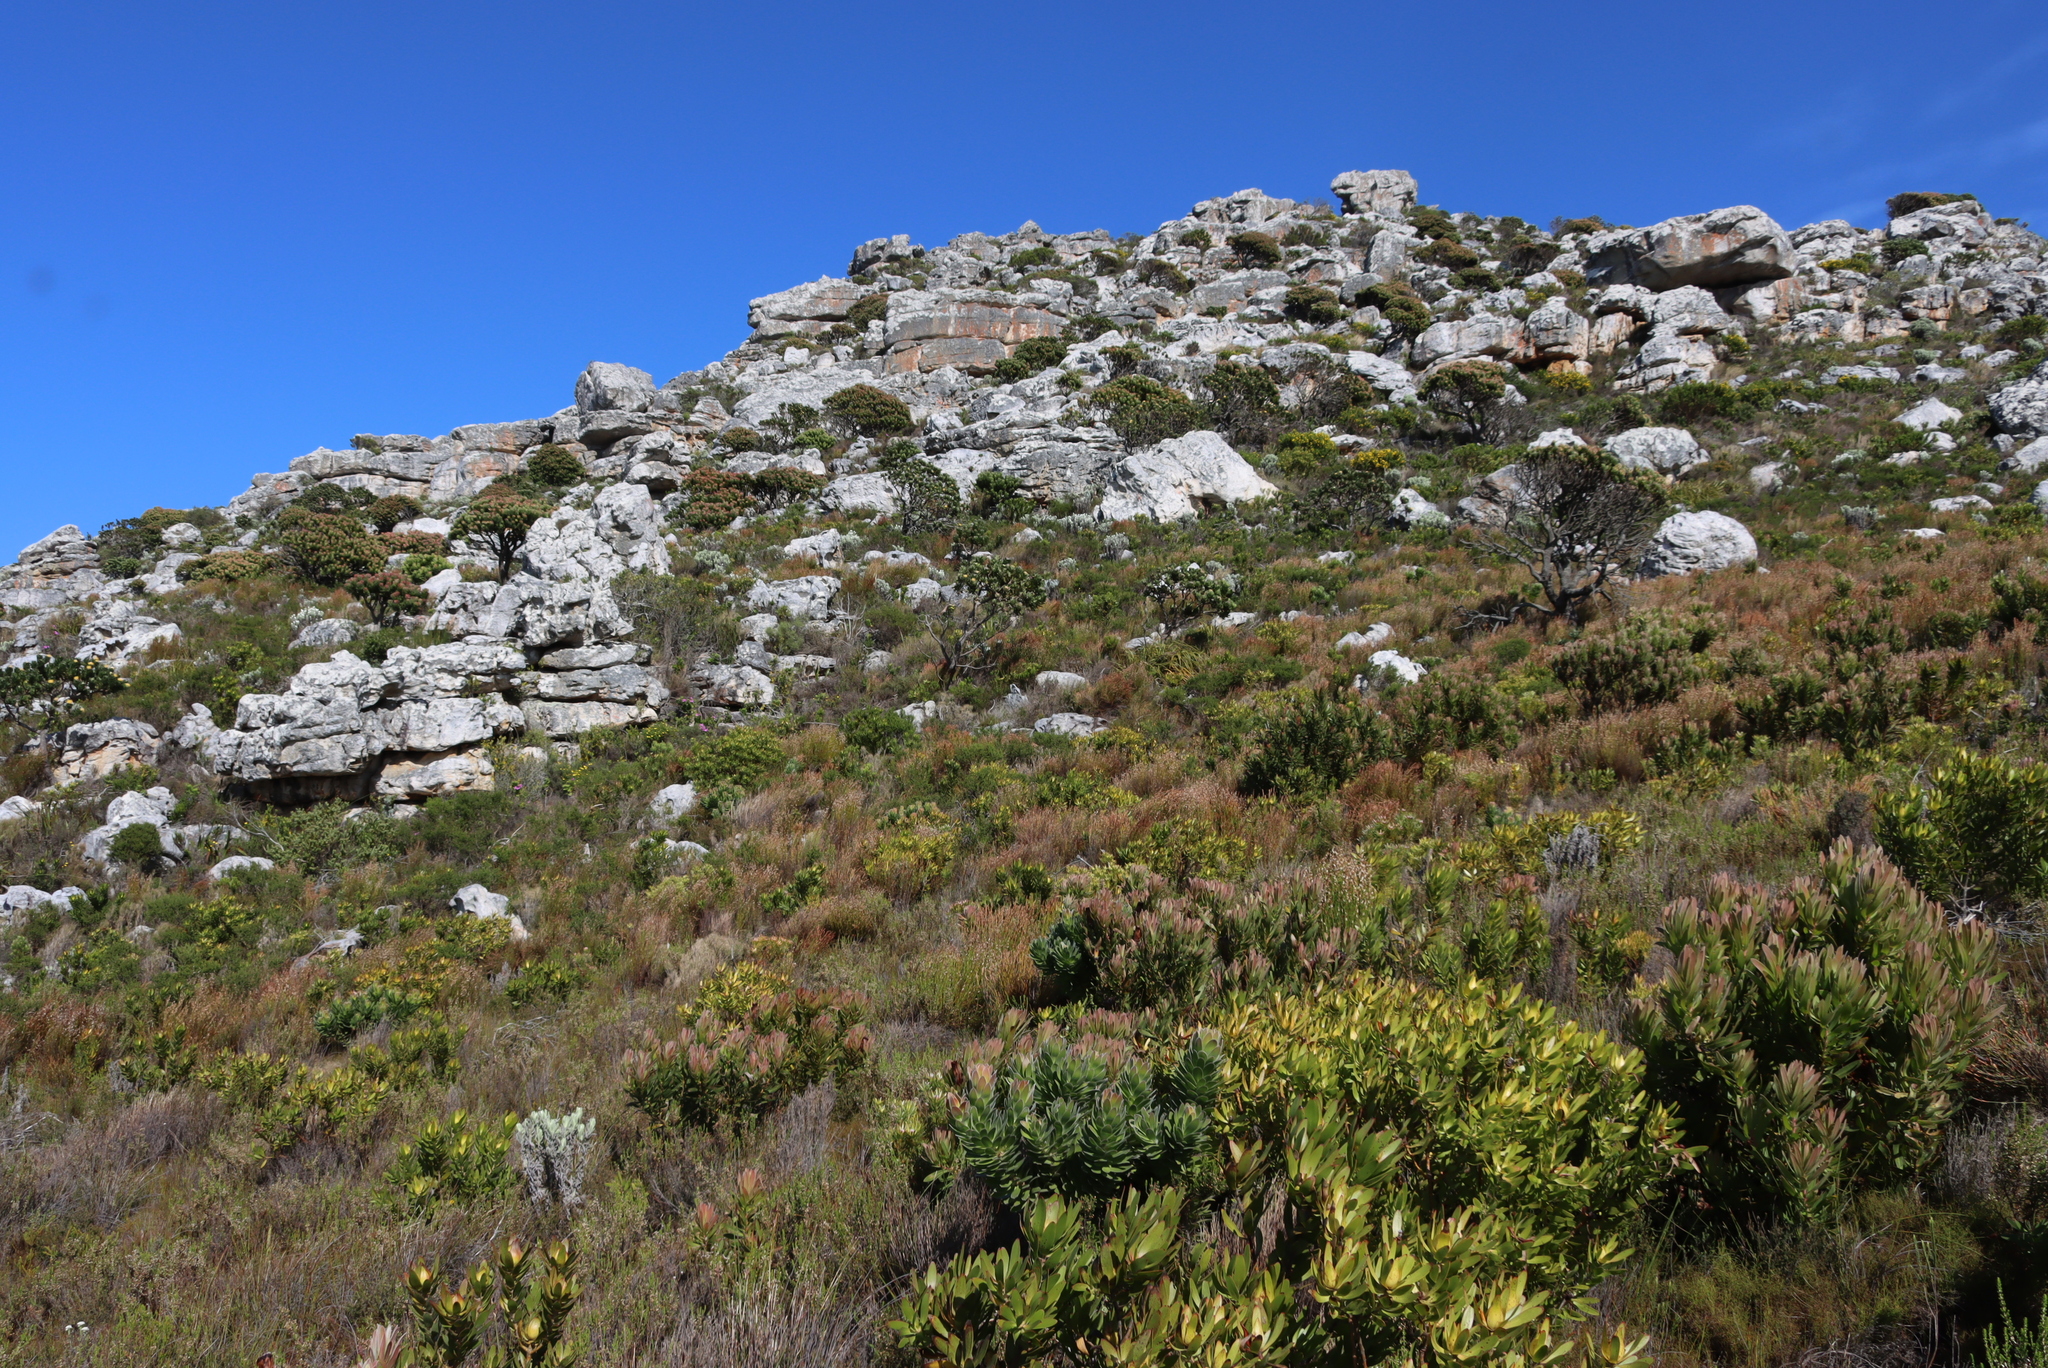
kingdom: Plantae
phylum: Tracheophyta
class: Magnoliopsida
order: Proteales
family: Proteaceae
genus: Leucospermum
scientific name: Leucospermum conocarpodendron
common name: Tree pincushion
